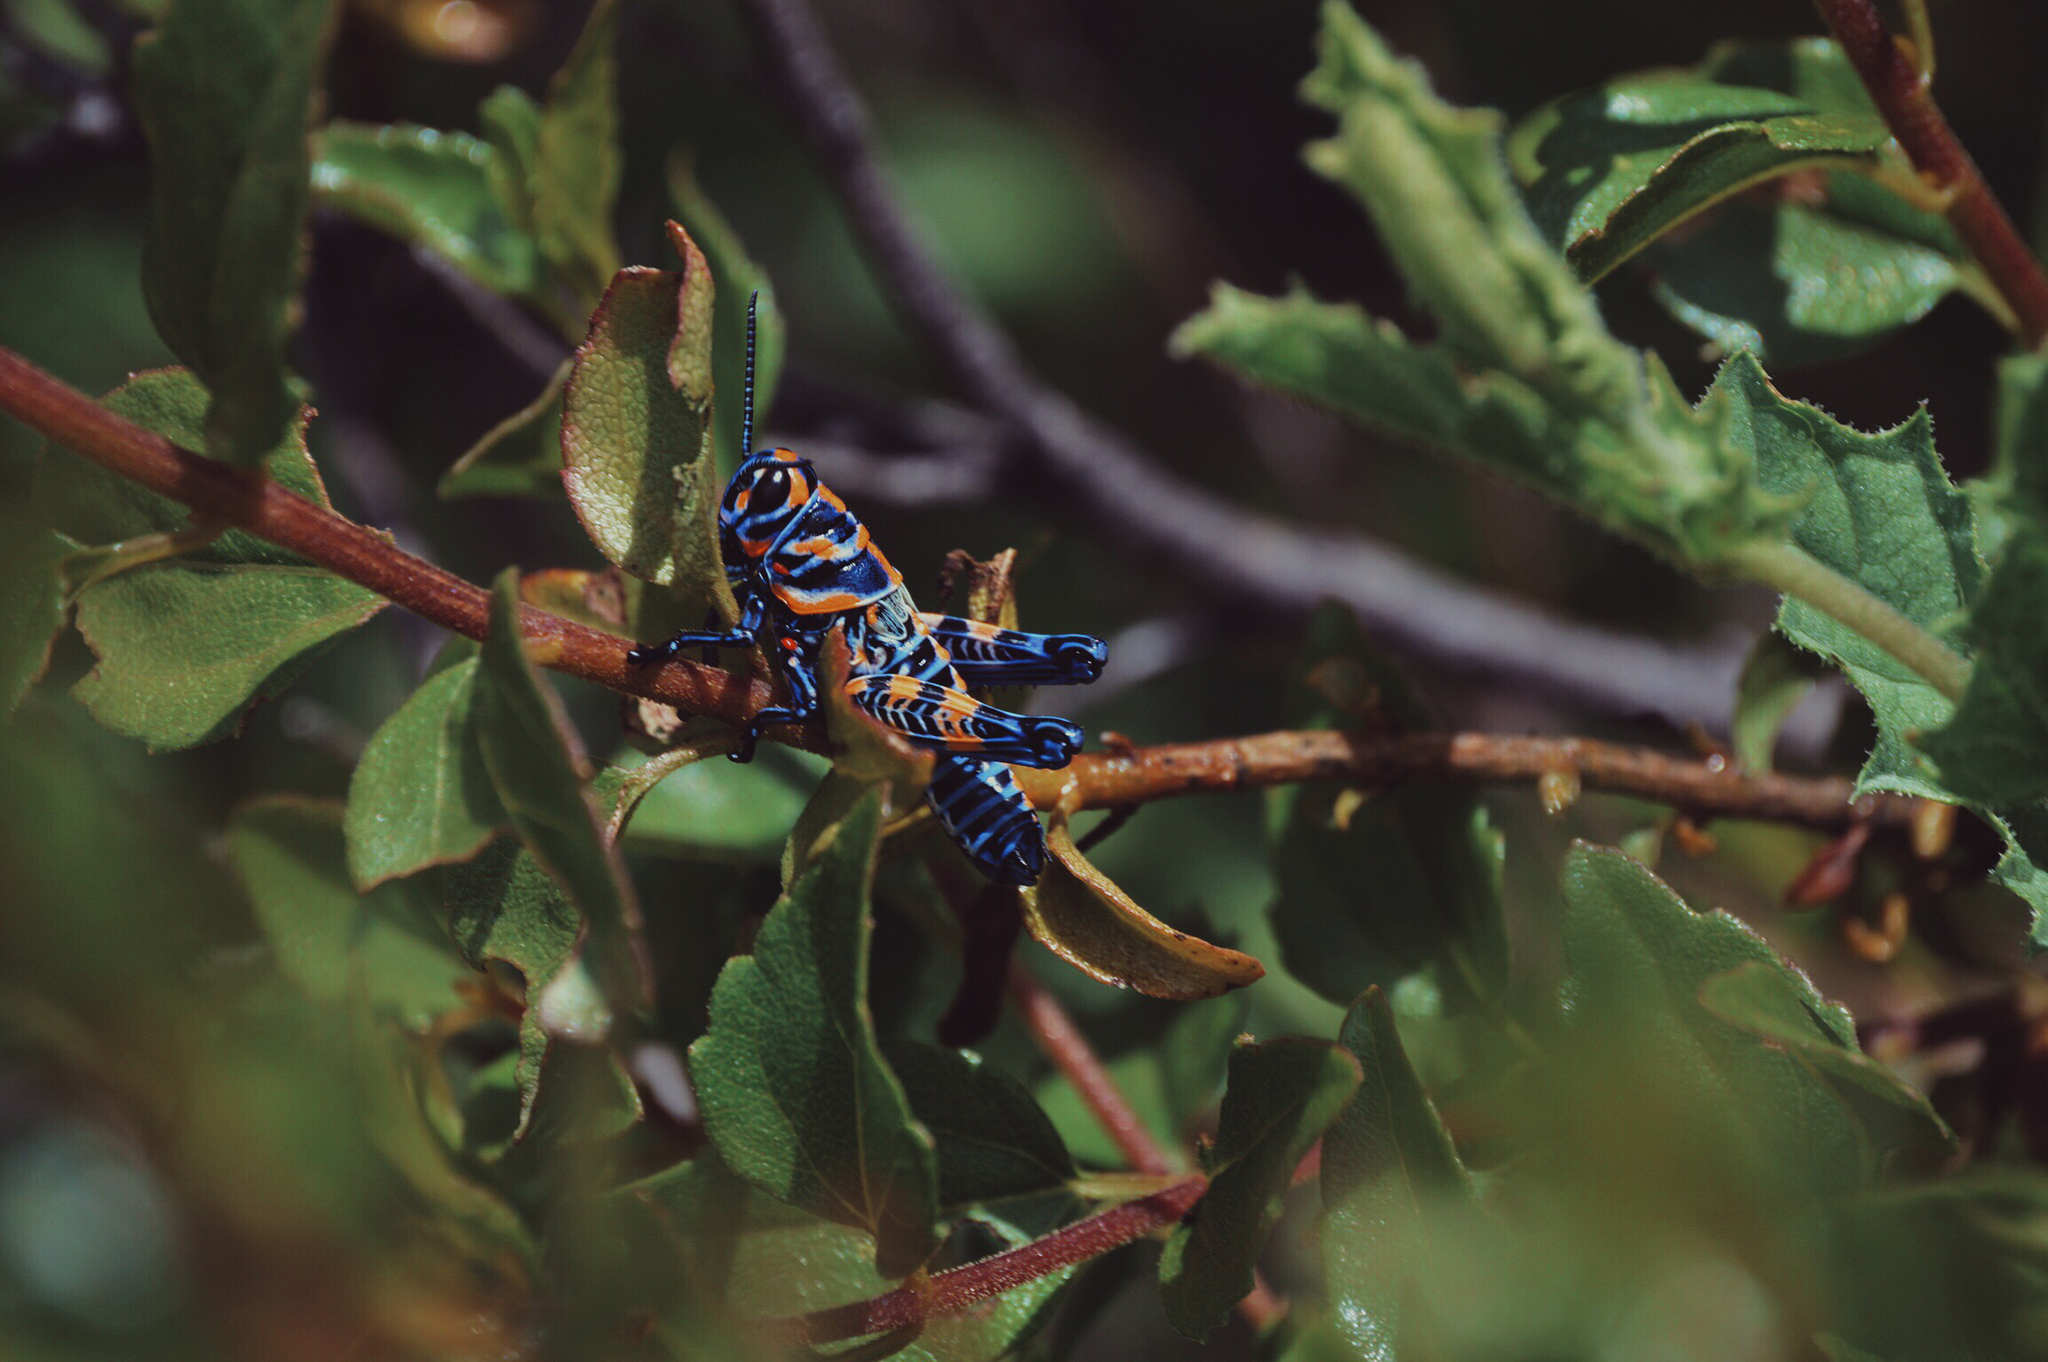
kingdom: Animalia
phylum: Arthropoda
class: Insecta
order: Orthoptera
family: Acrididae
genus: Dactylotum
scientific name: Dactylotum bicolor
